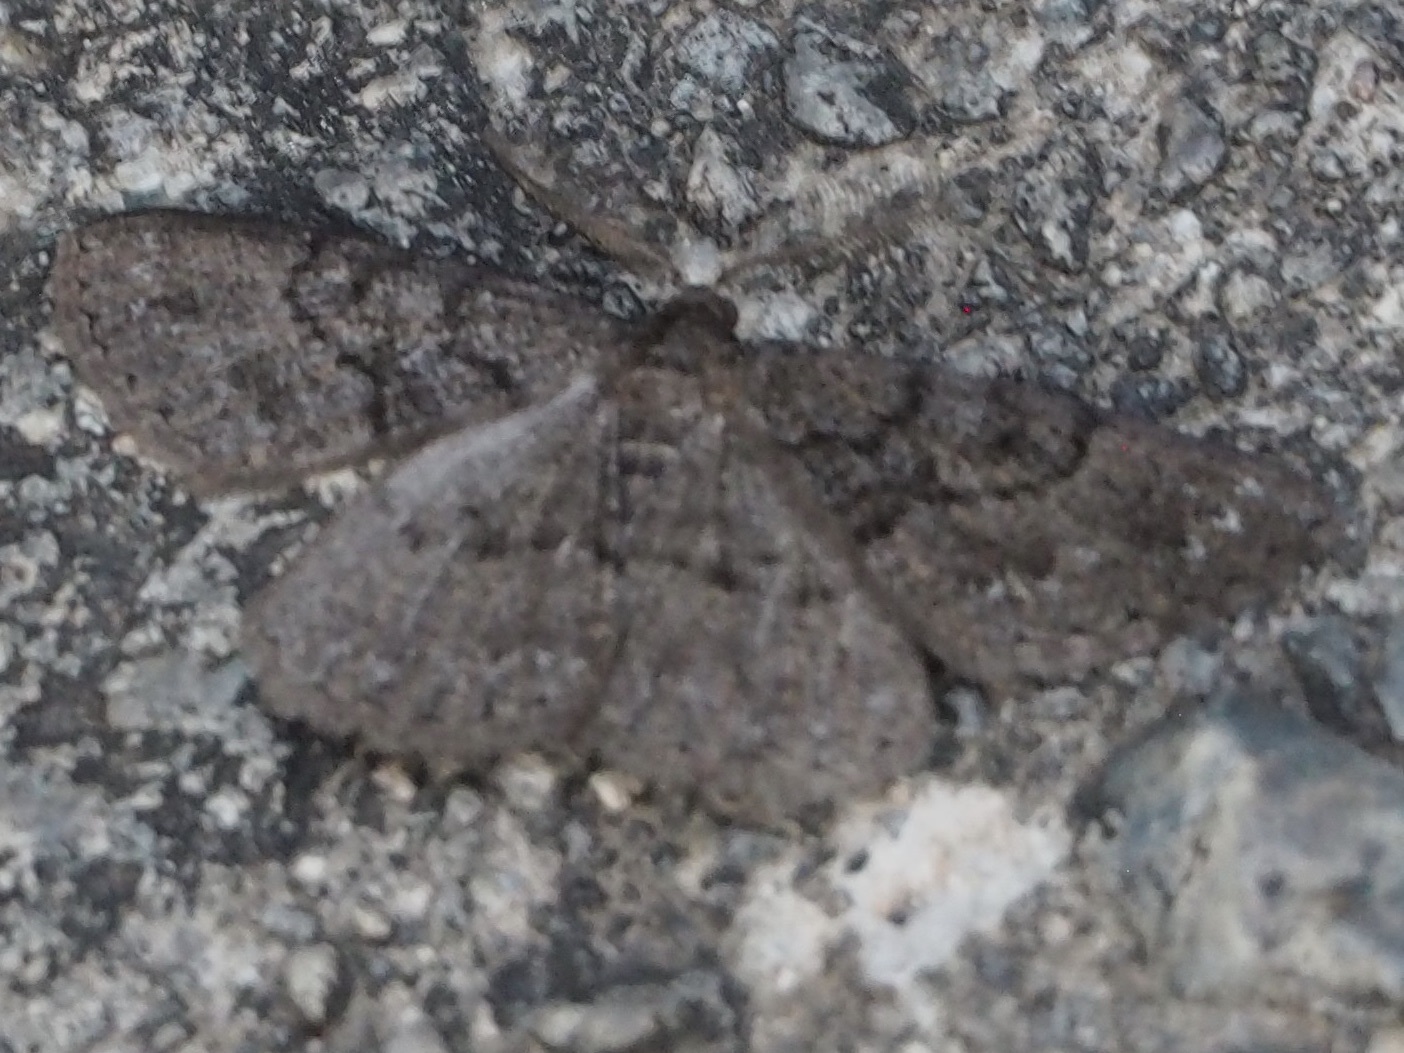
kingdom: Animalia
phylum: Arthropoda
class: Insecta
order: Lepidoptera
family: Geometridae
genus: Selidosema
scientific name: Selidosema taeniolaria
